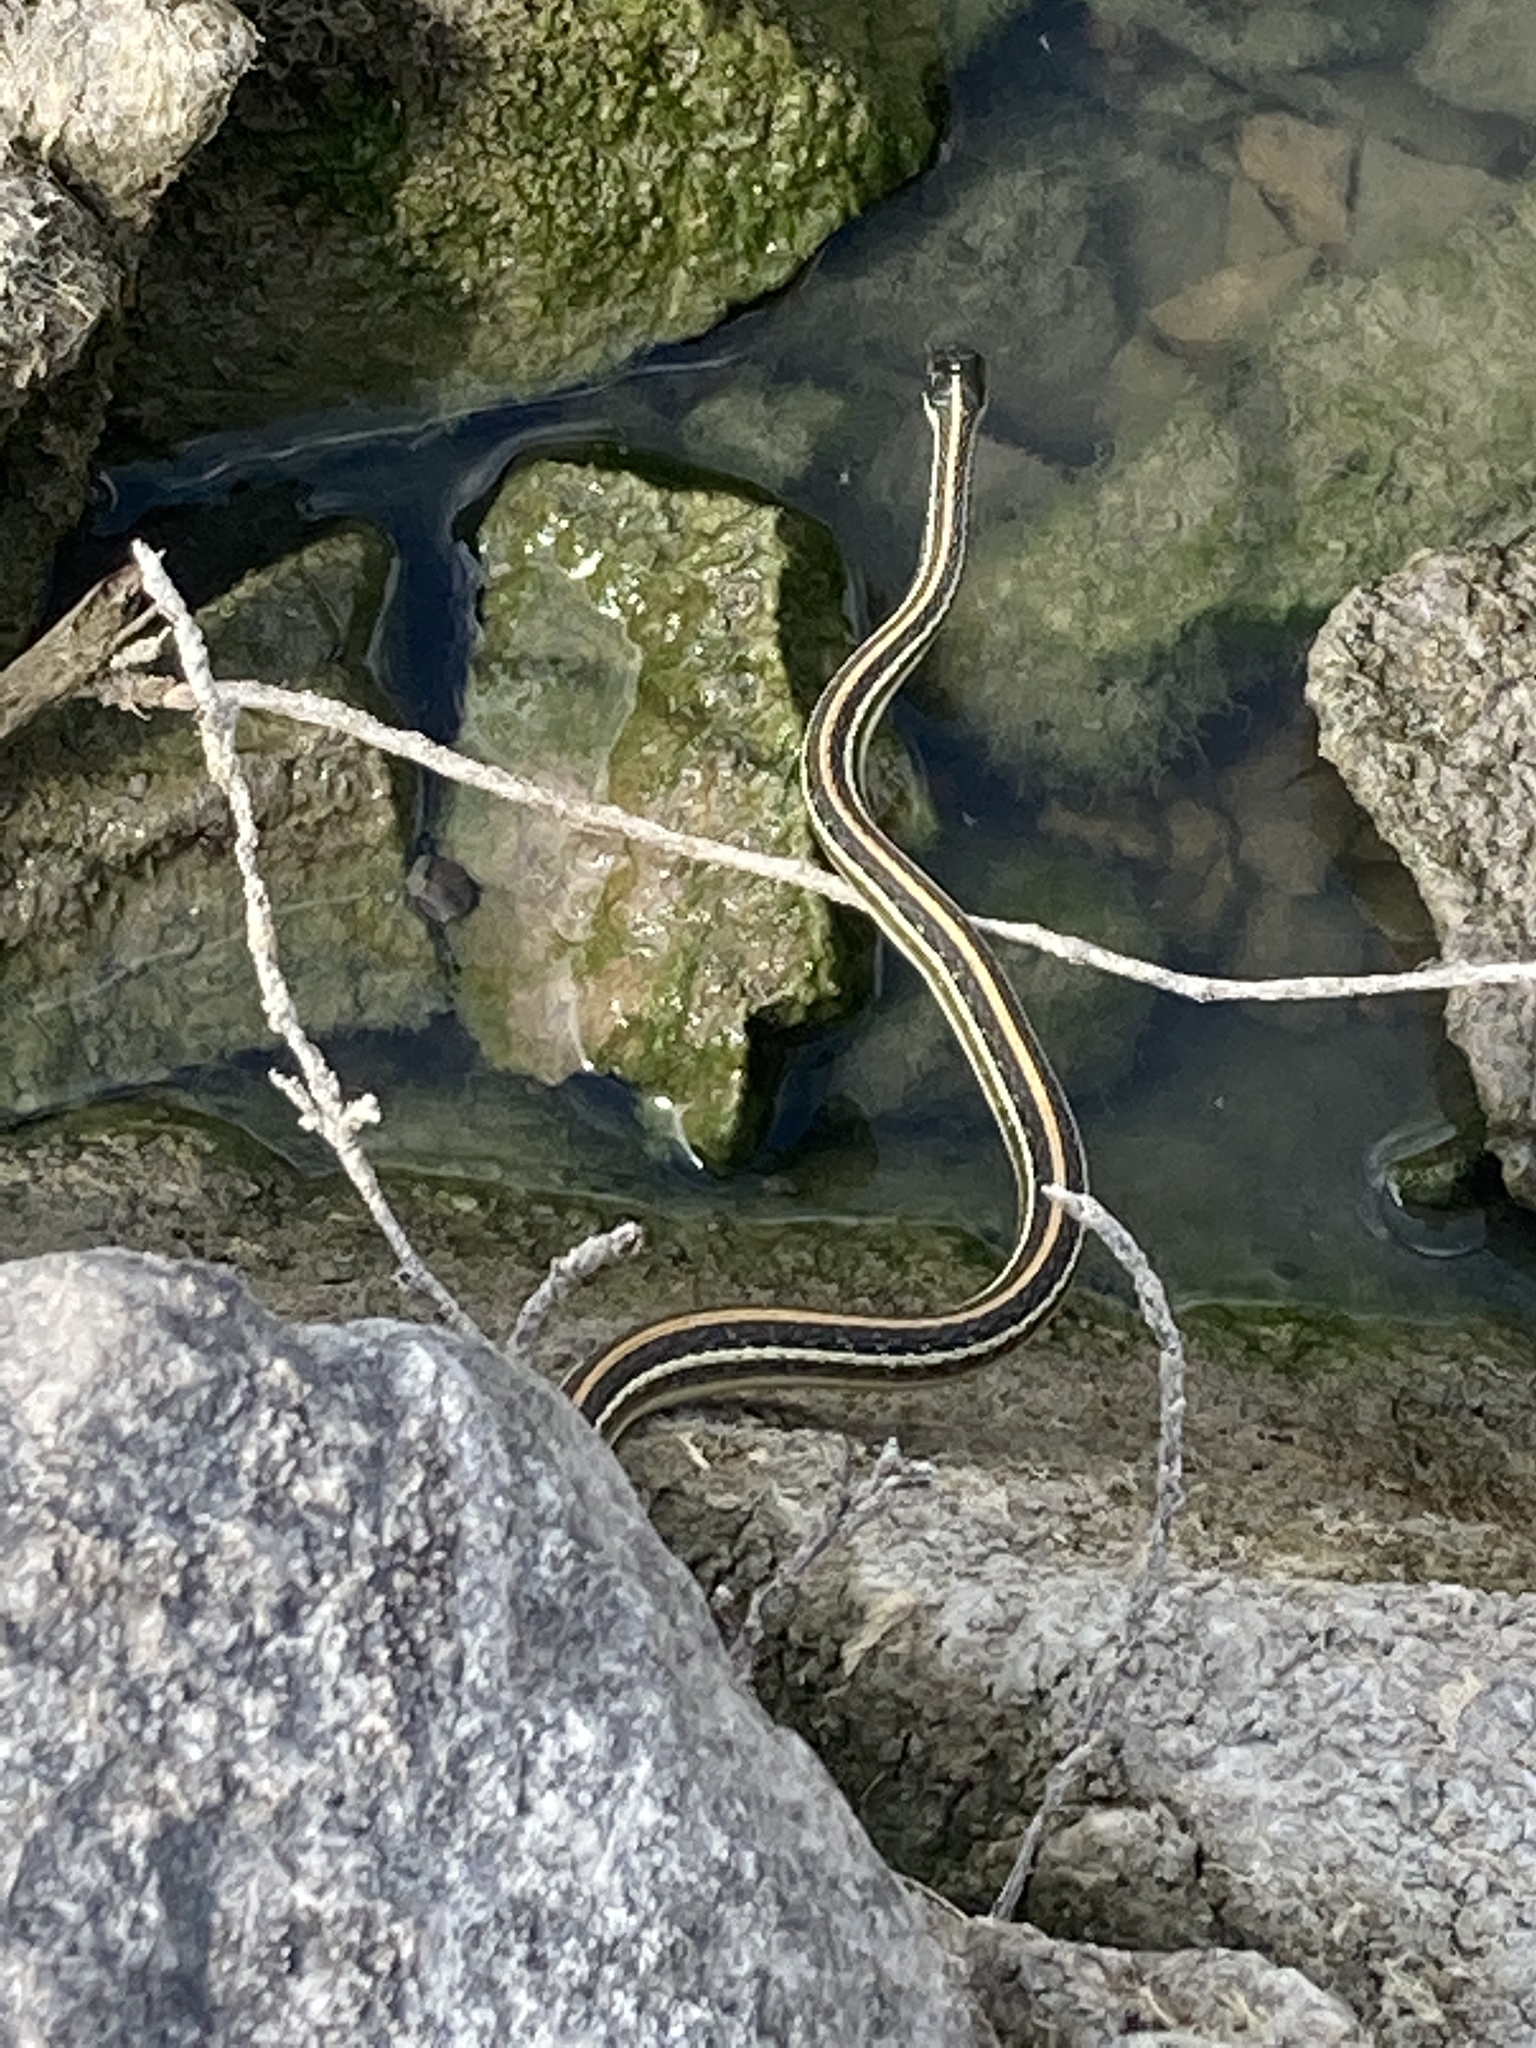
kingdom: Animalia
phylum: Chordata
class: Squamata
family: Colubridae
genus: Thamnophis
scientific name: Thamnophis proximus
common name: Western ribbon snake
